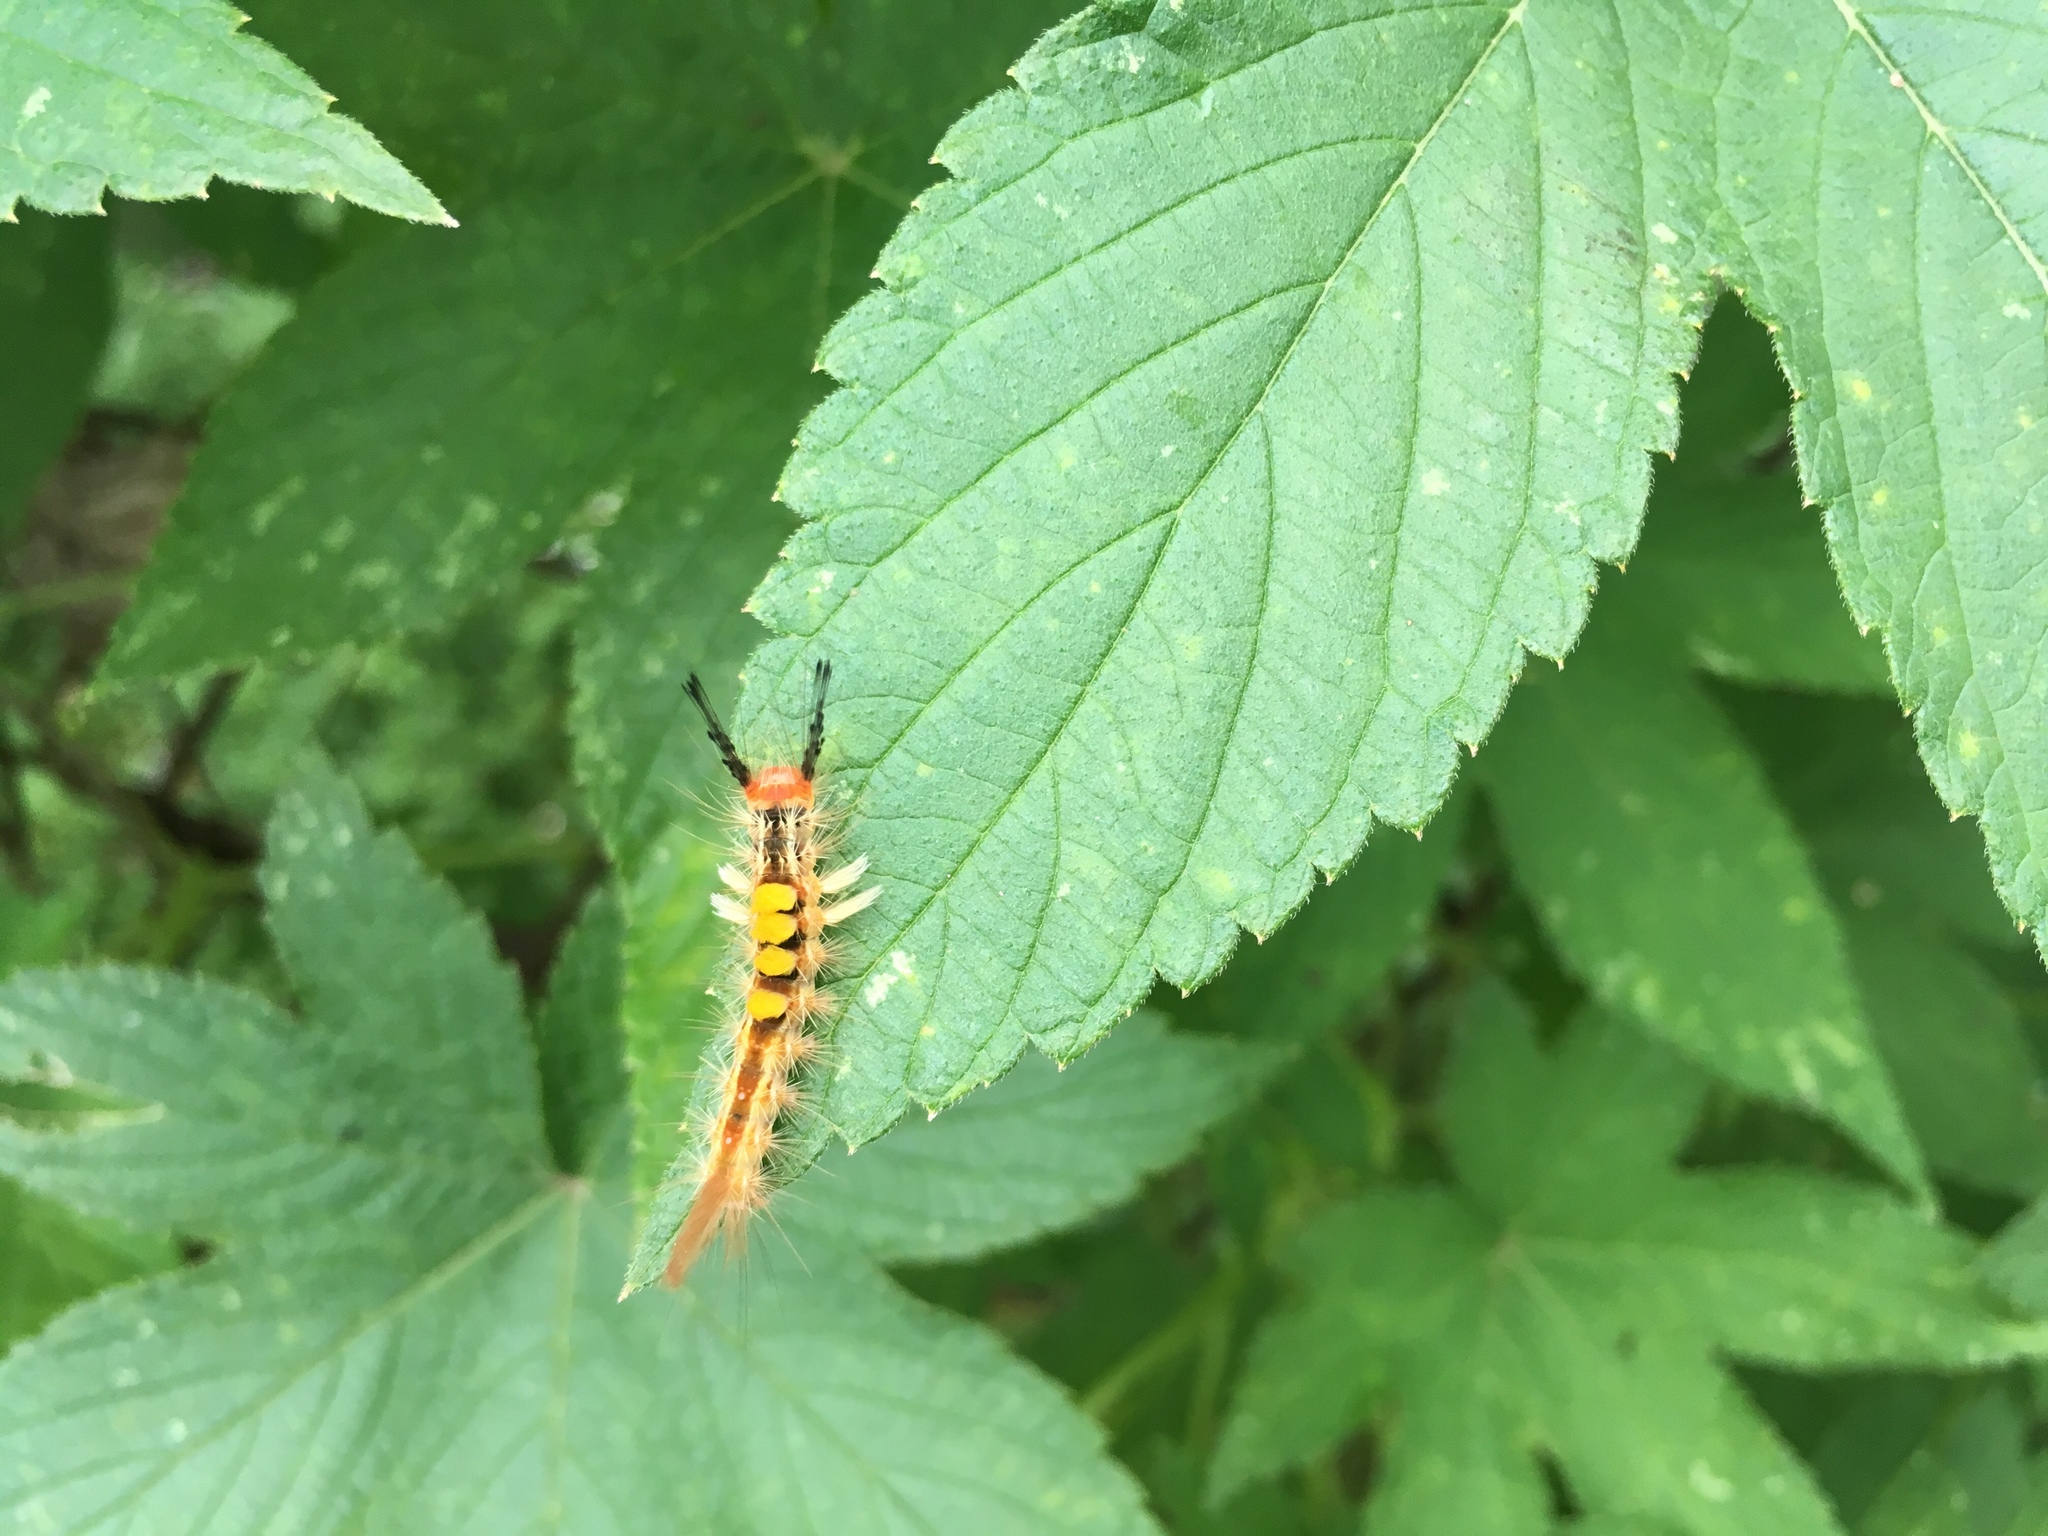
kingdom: Animalia
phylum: Arthropoda
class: Insecta
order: Lepidoptera
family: Erebidae
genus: Orgyia
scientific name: Orgyia postica
